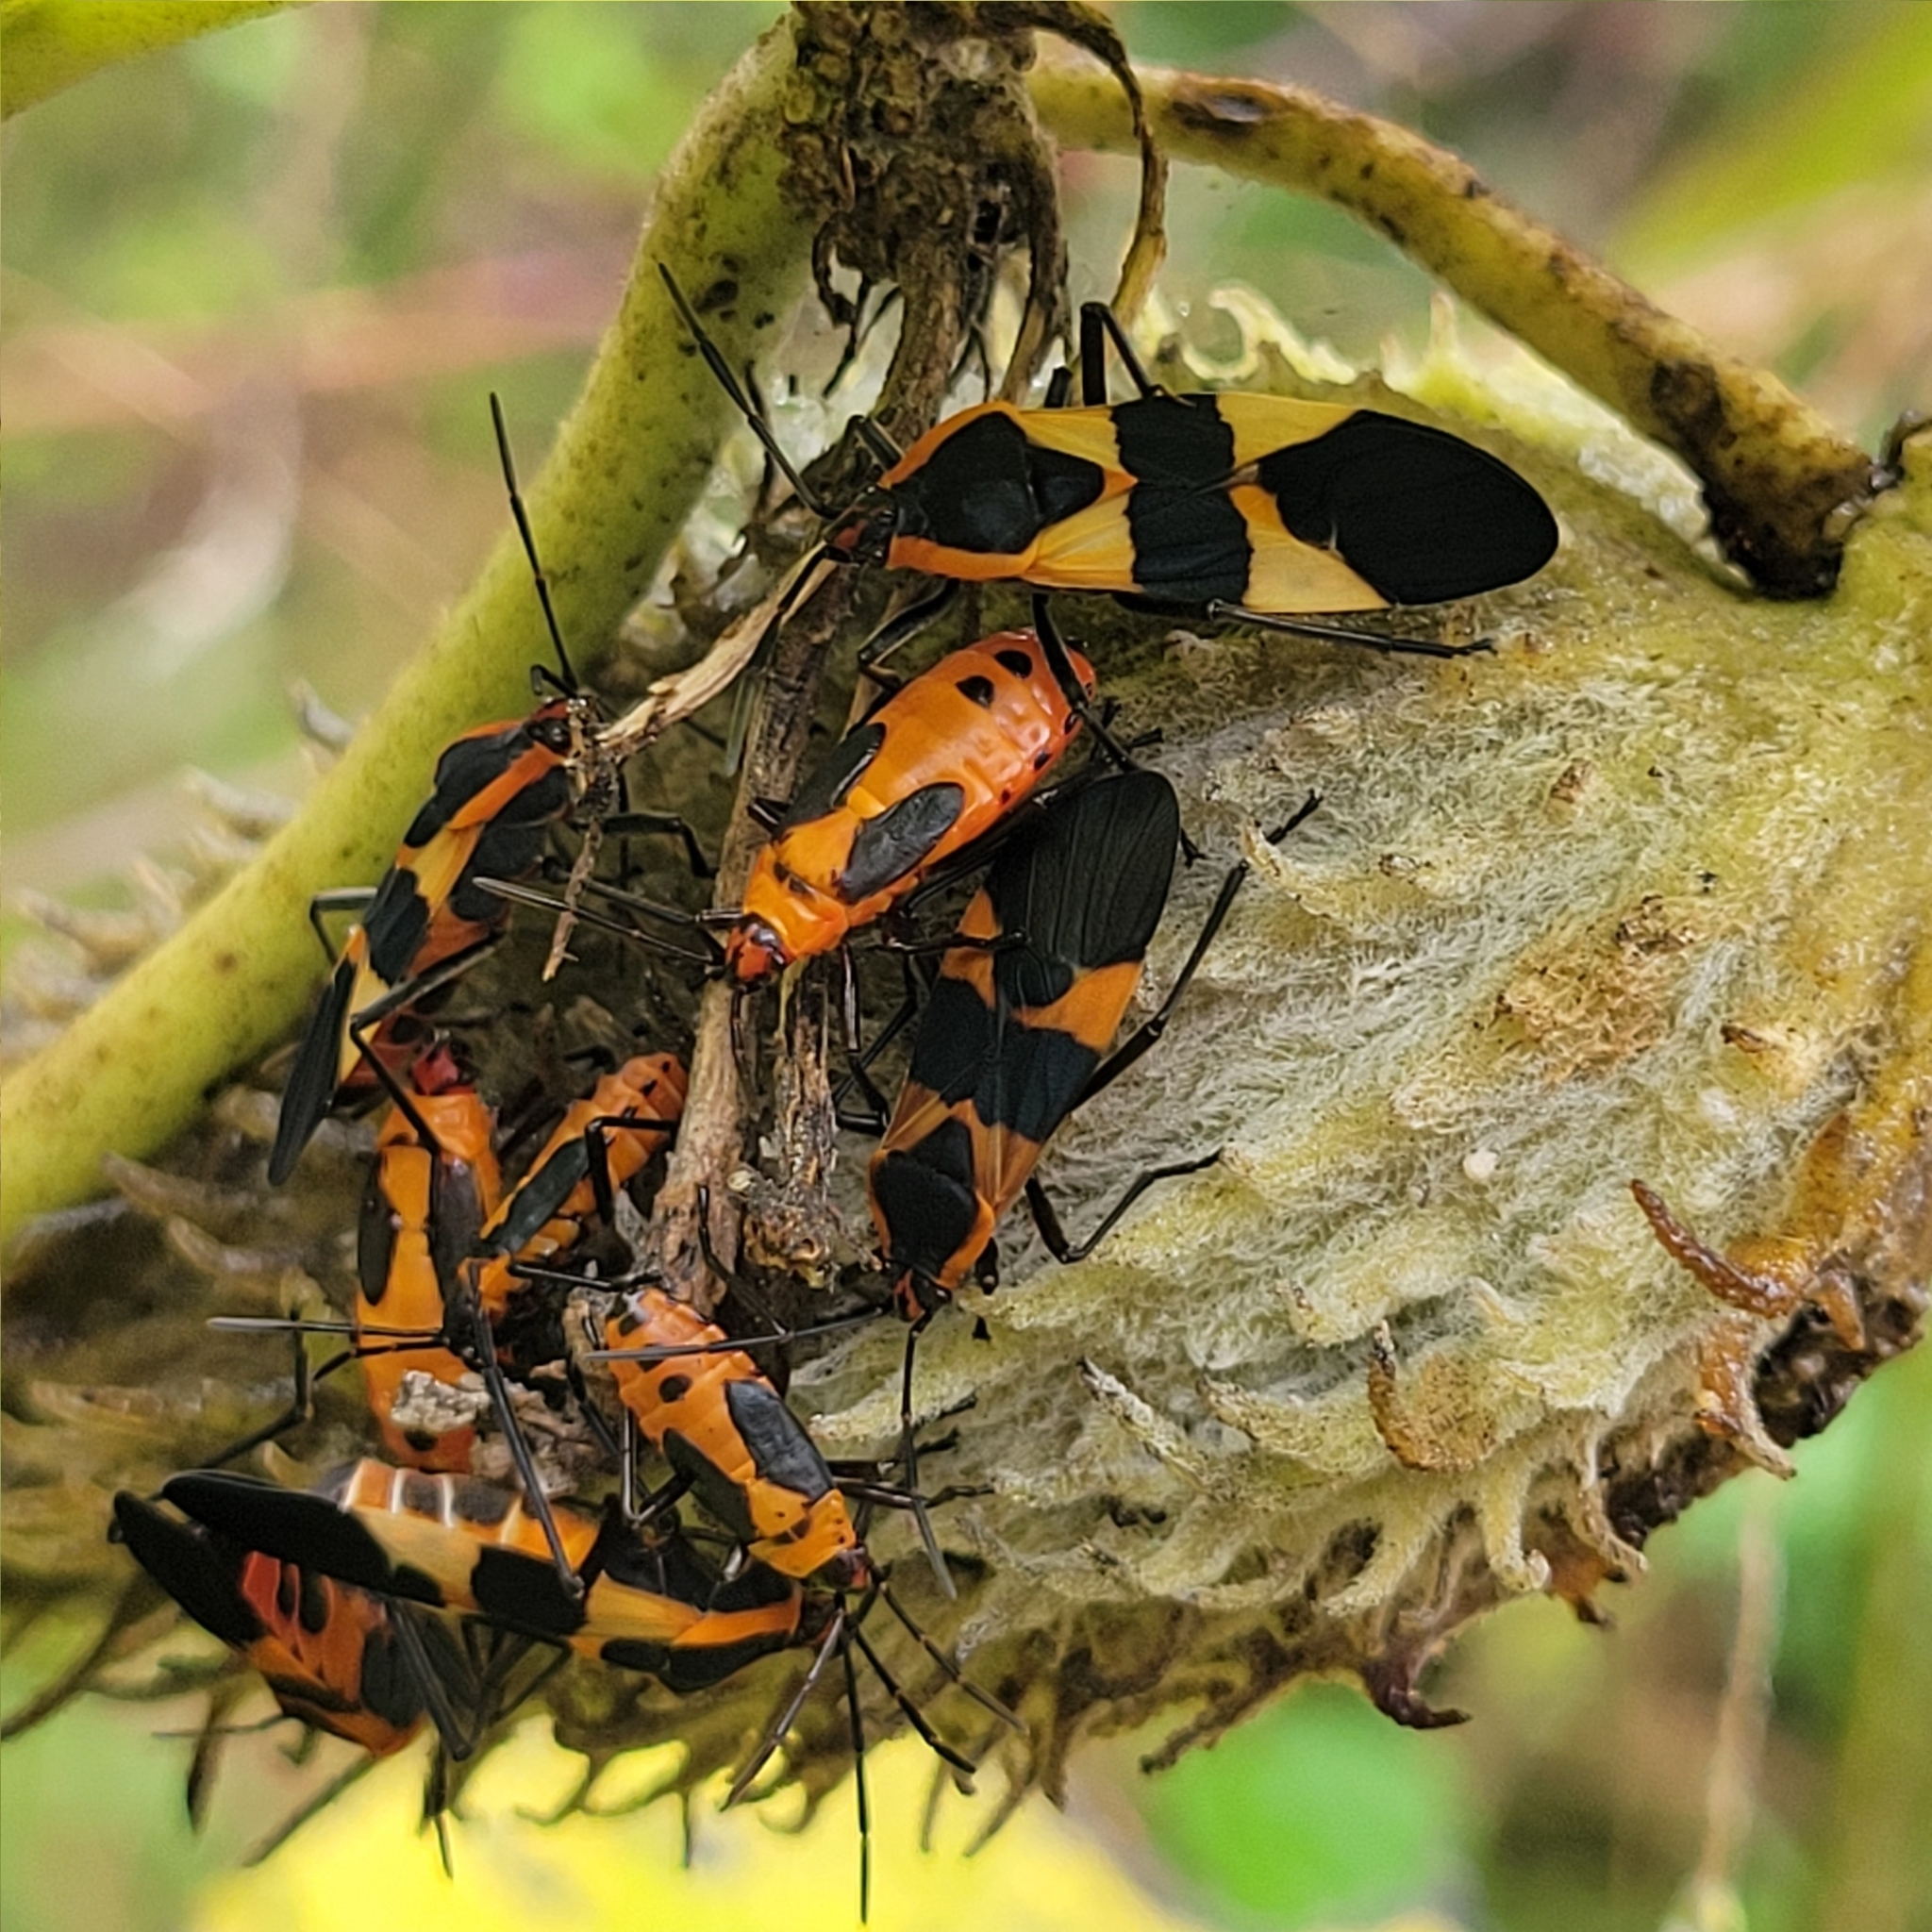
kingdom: Animalia
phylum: Arthropoda
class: Insecta
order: Hemiptera
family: Lygaeidae
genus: Oncopeltus
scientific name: Oncopeltus fasciatus
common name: Large milkweed bug
